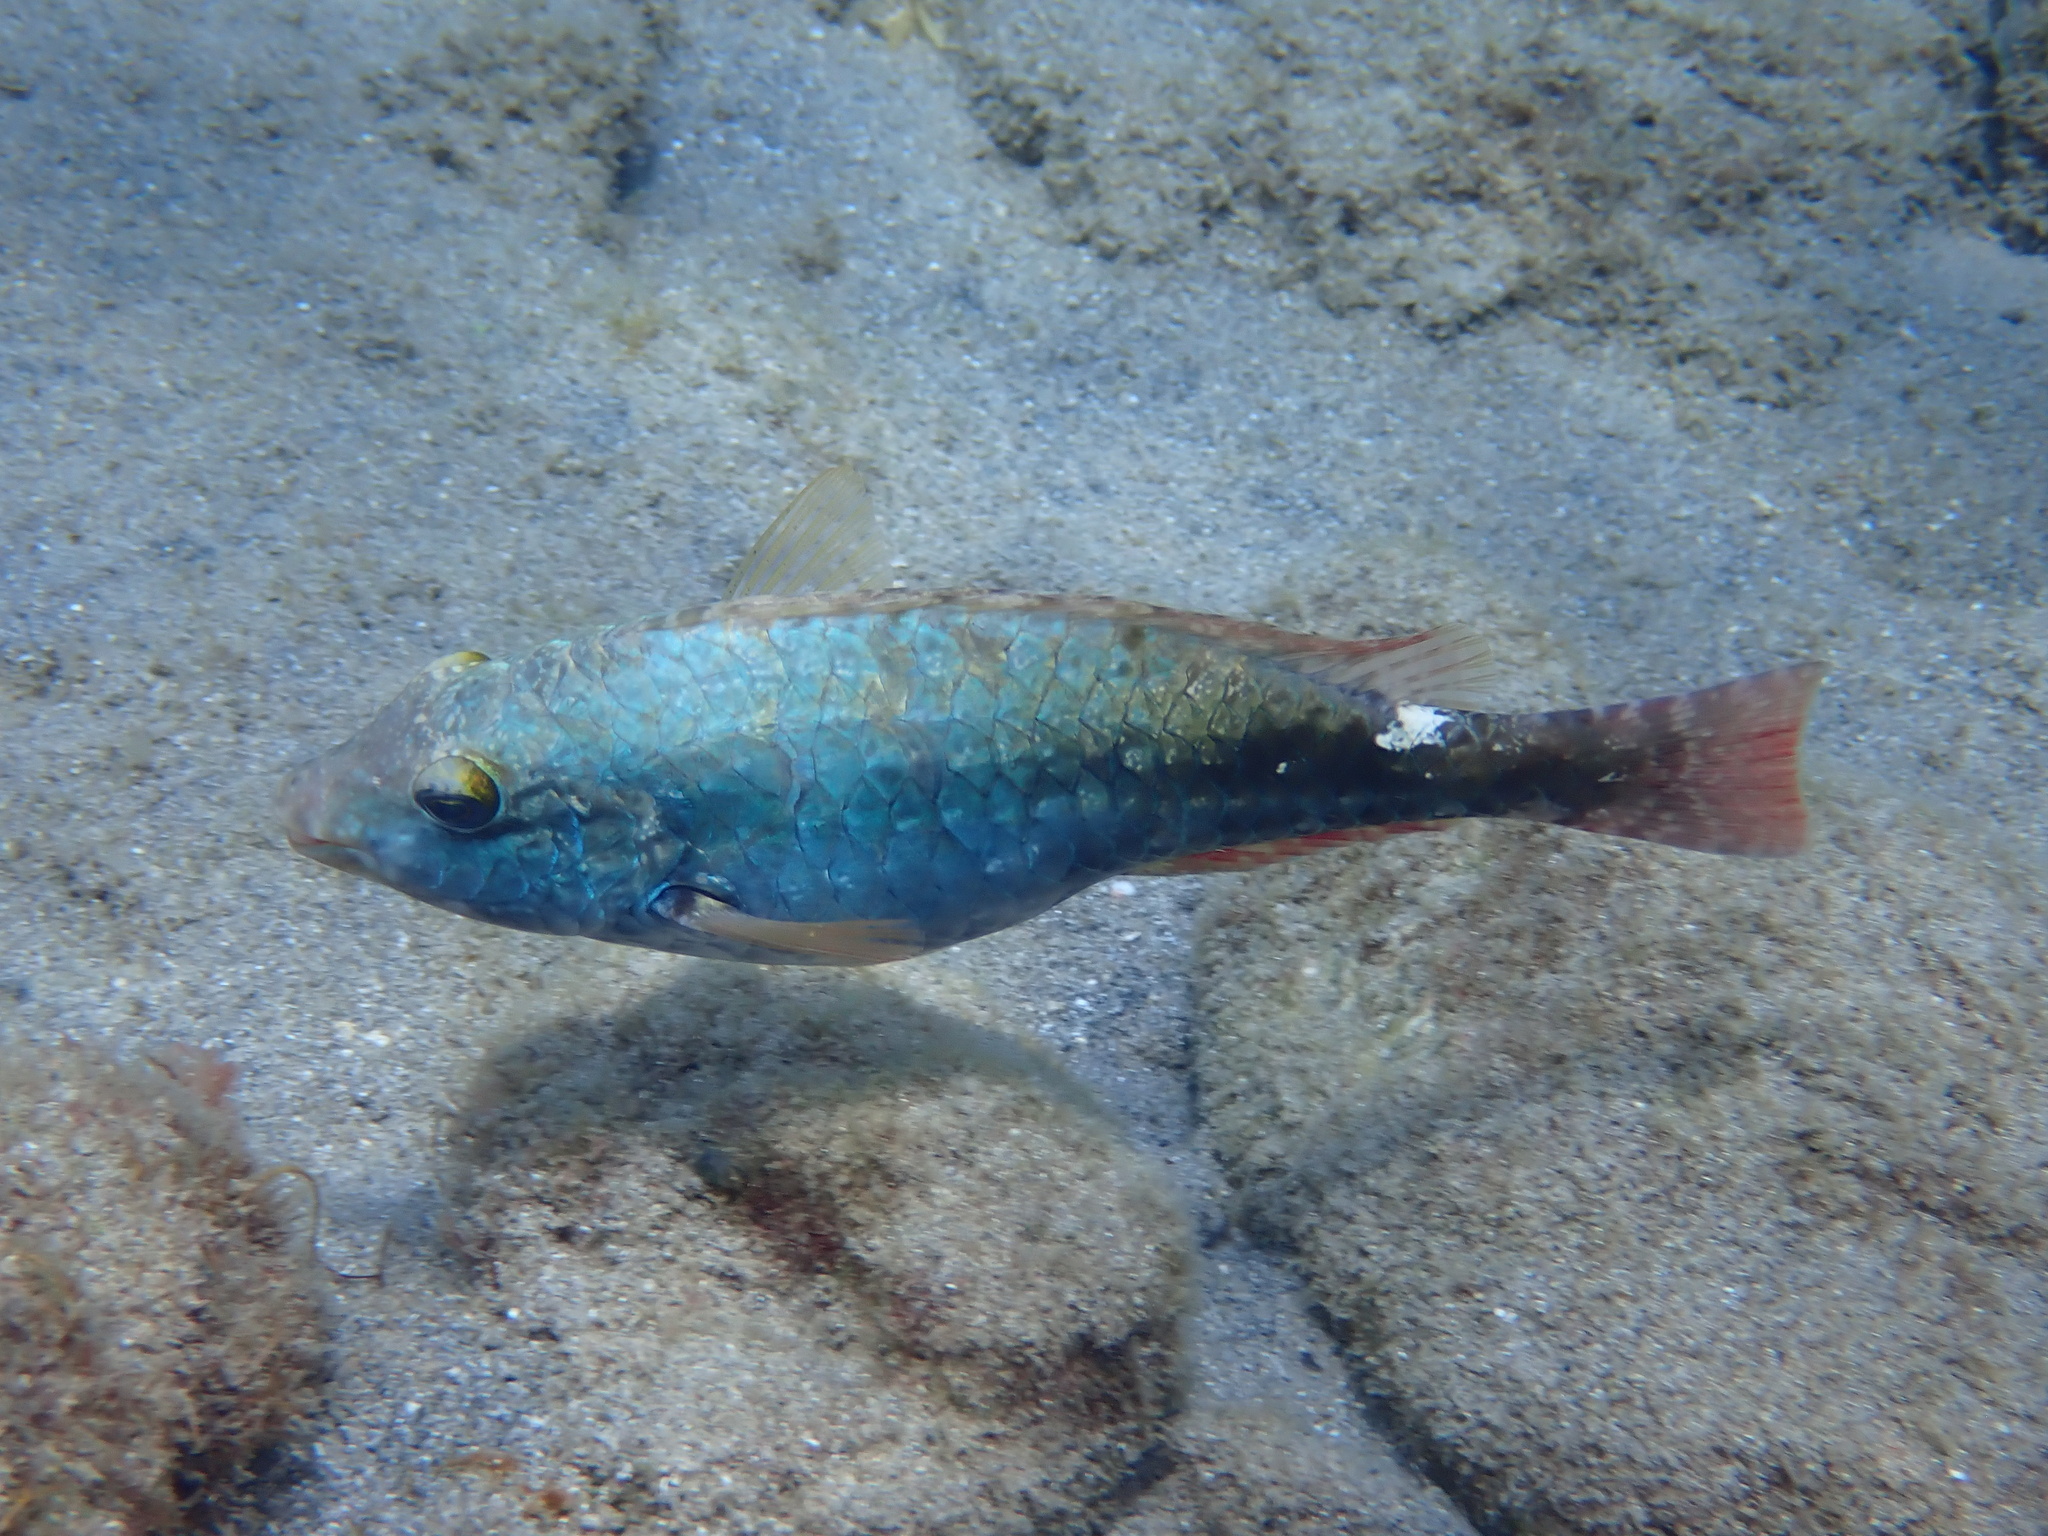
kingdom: Animalia
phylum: Chordata
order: Perciformes
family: Scaridae
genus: Sparisoma
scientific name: Sparisoma aurofrenatum
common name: Redband parrotfish
